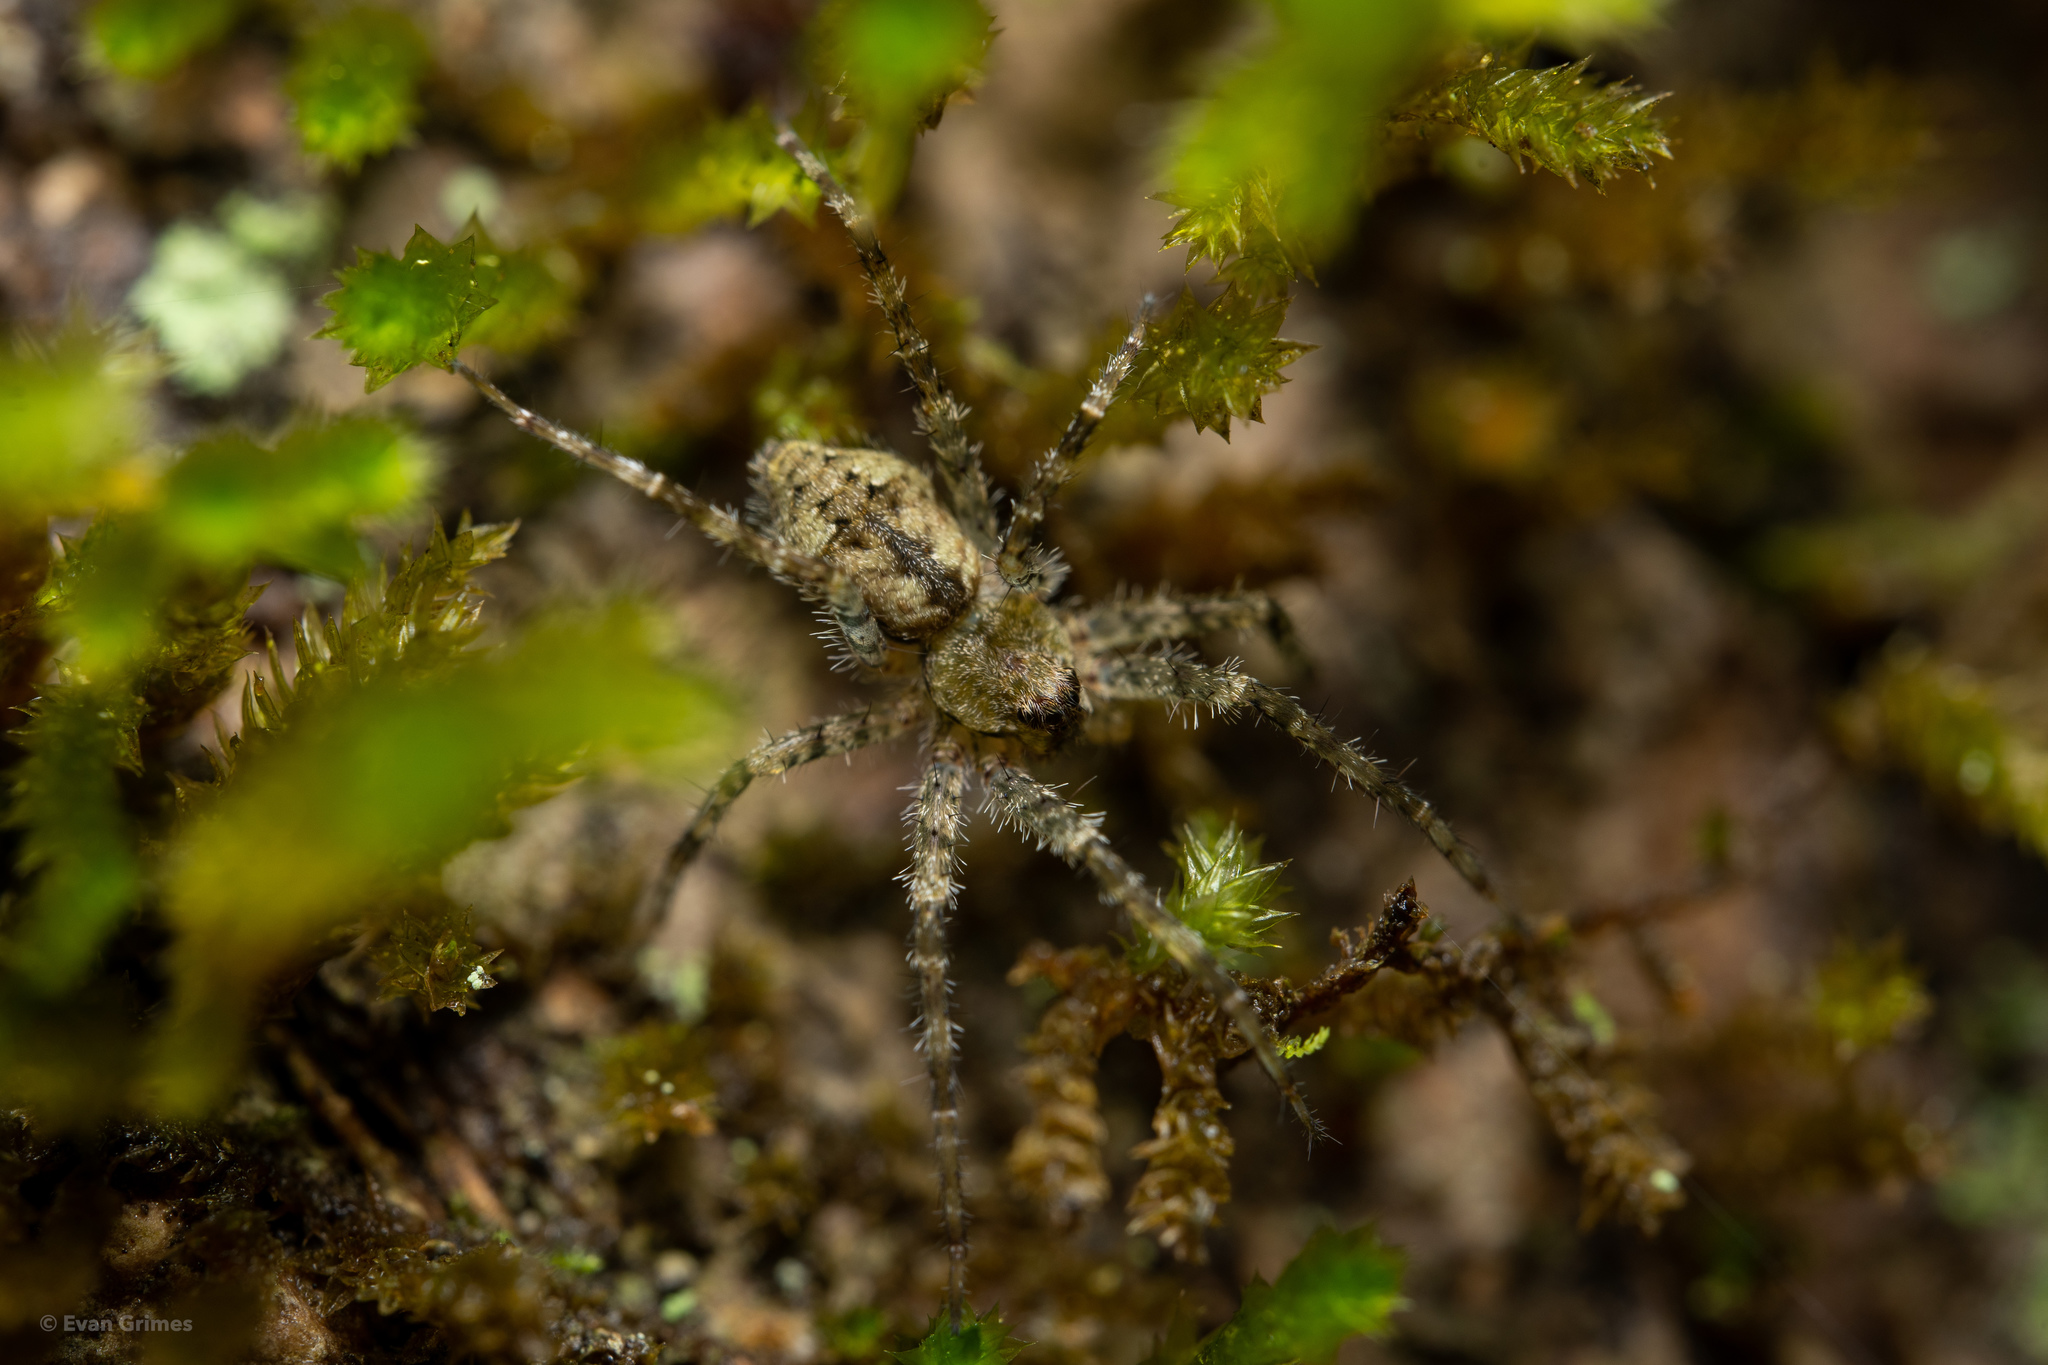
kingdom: Animalia
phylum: Arthropoda
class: Arachnida
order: Araneae
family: Pisauridae
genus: Dolomedes
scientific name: Dolomedes albineus
